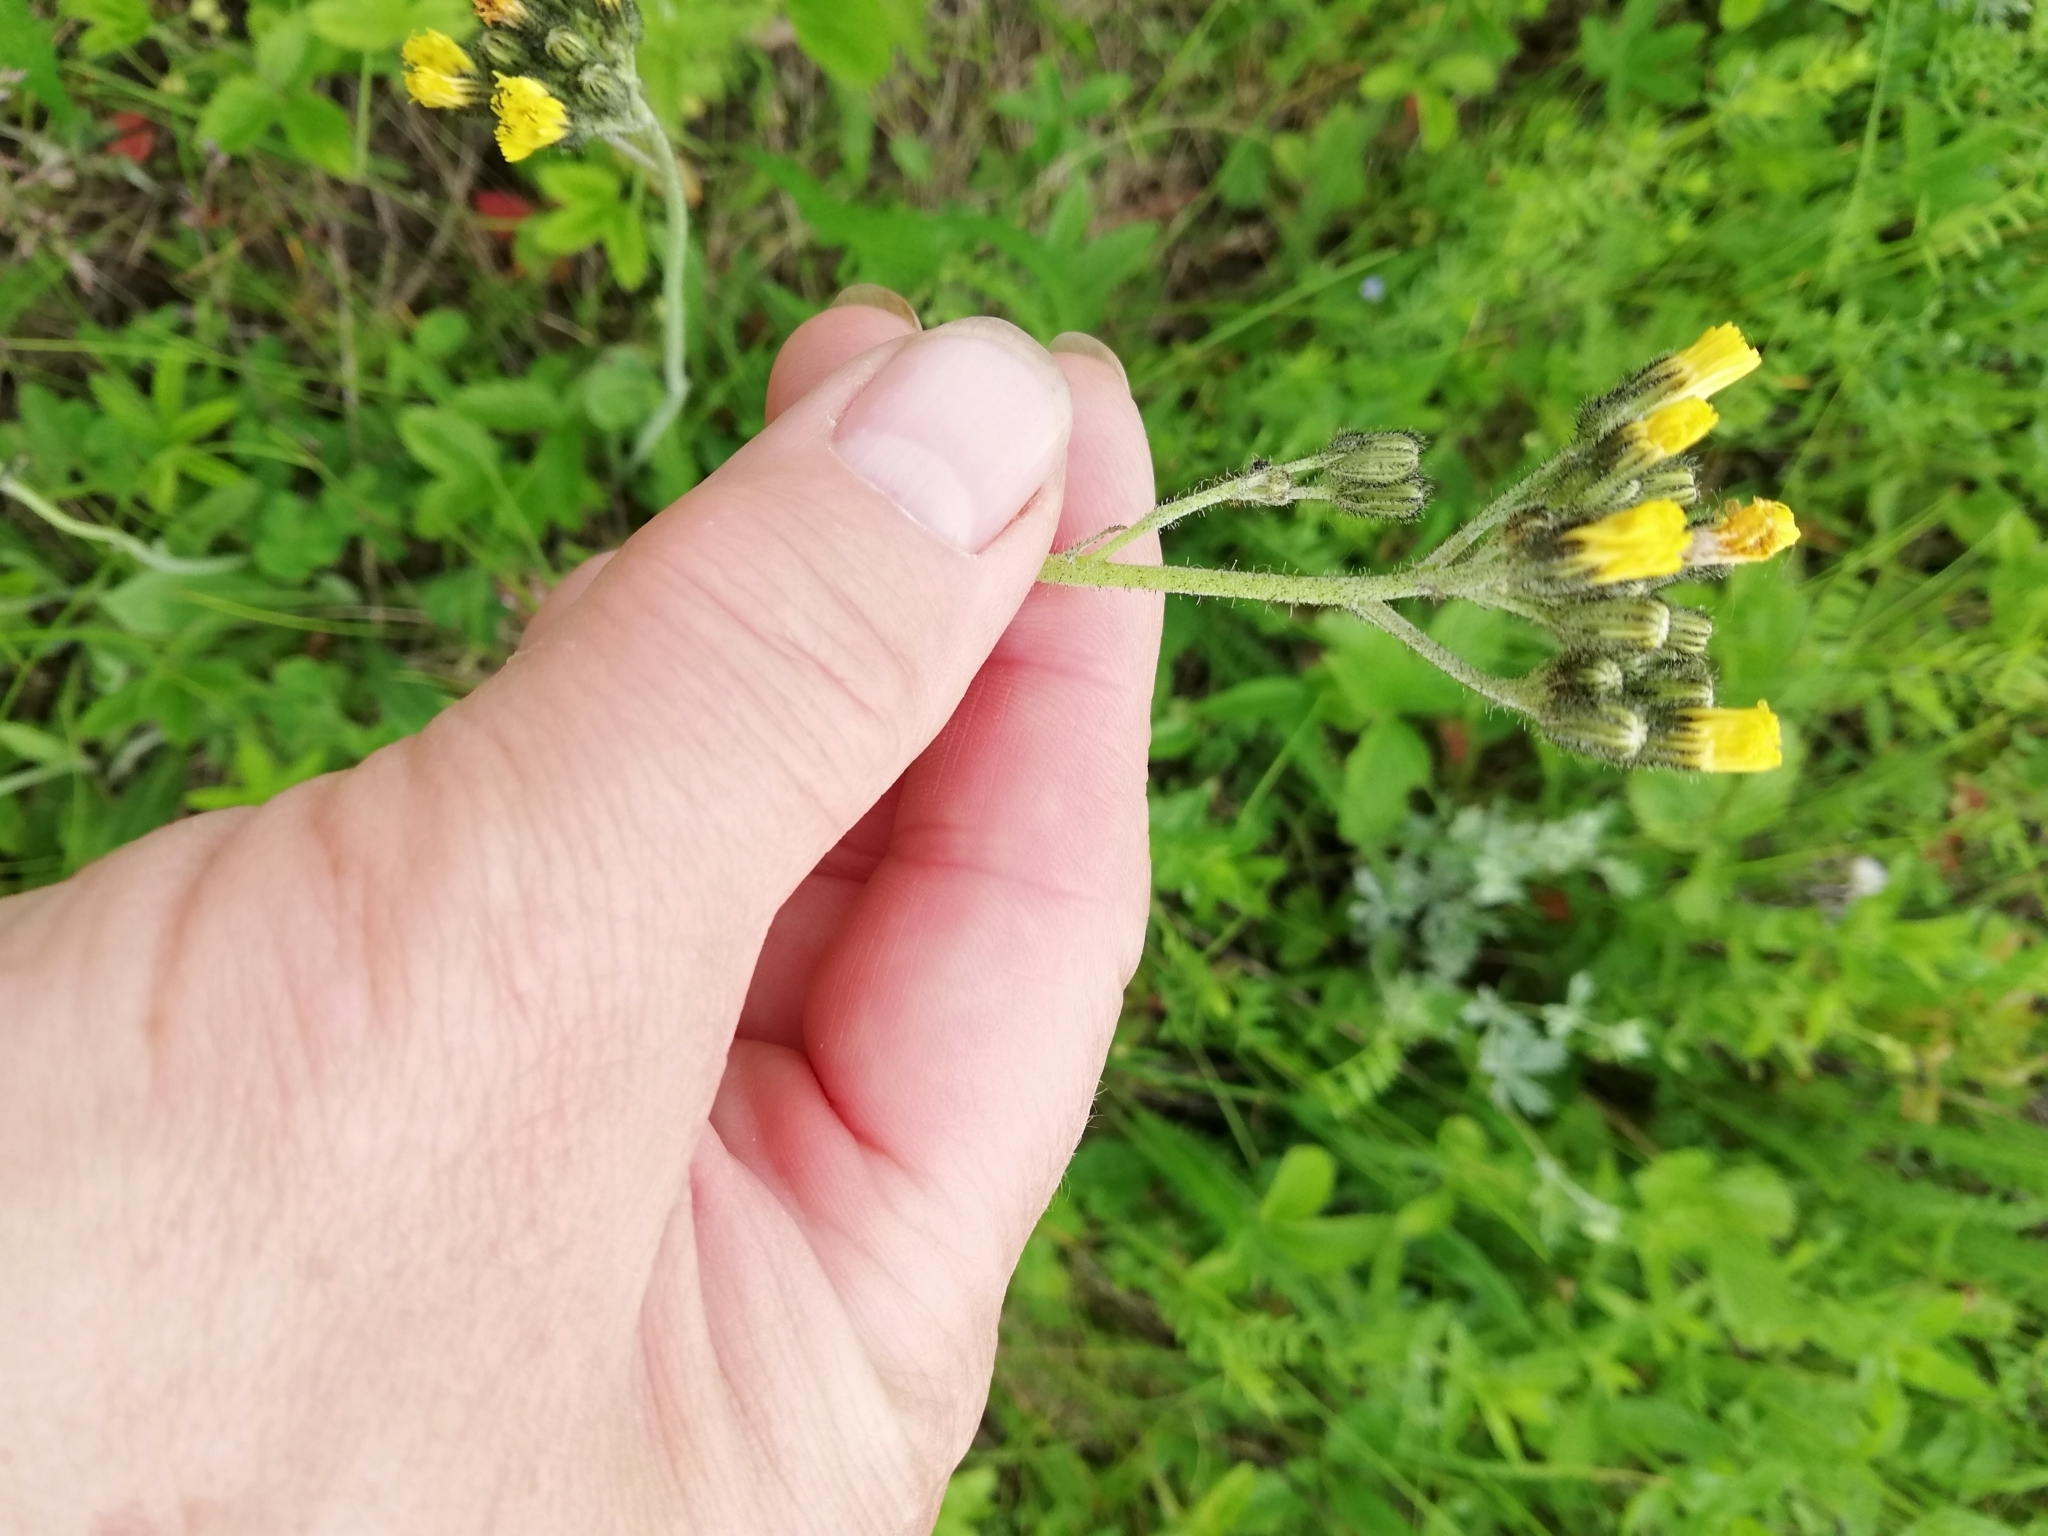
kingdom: Plantae
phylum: Tracheophyta
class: Magnoliopsida
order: Asterales
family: Asteraceae
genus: Pilosella
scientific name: Pilosella
